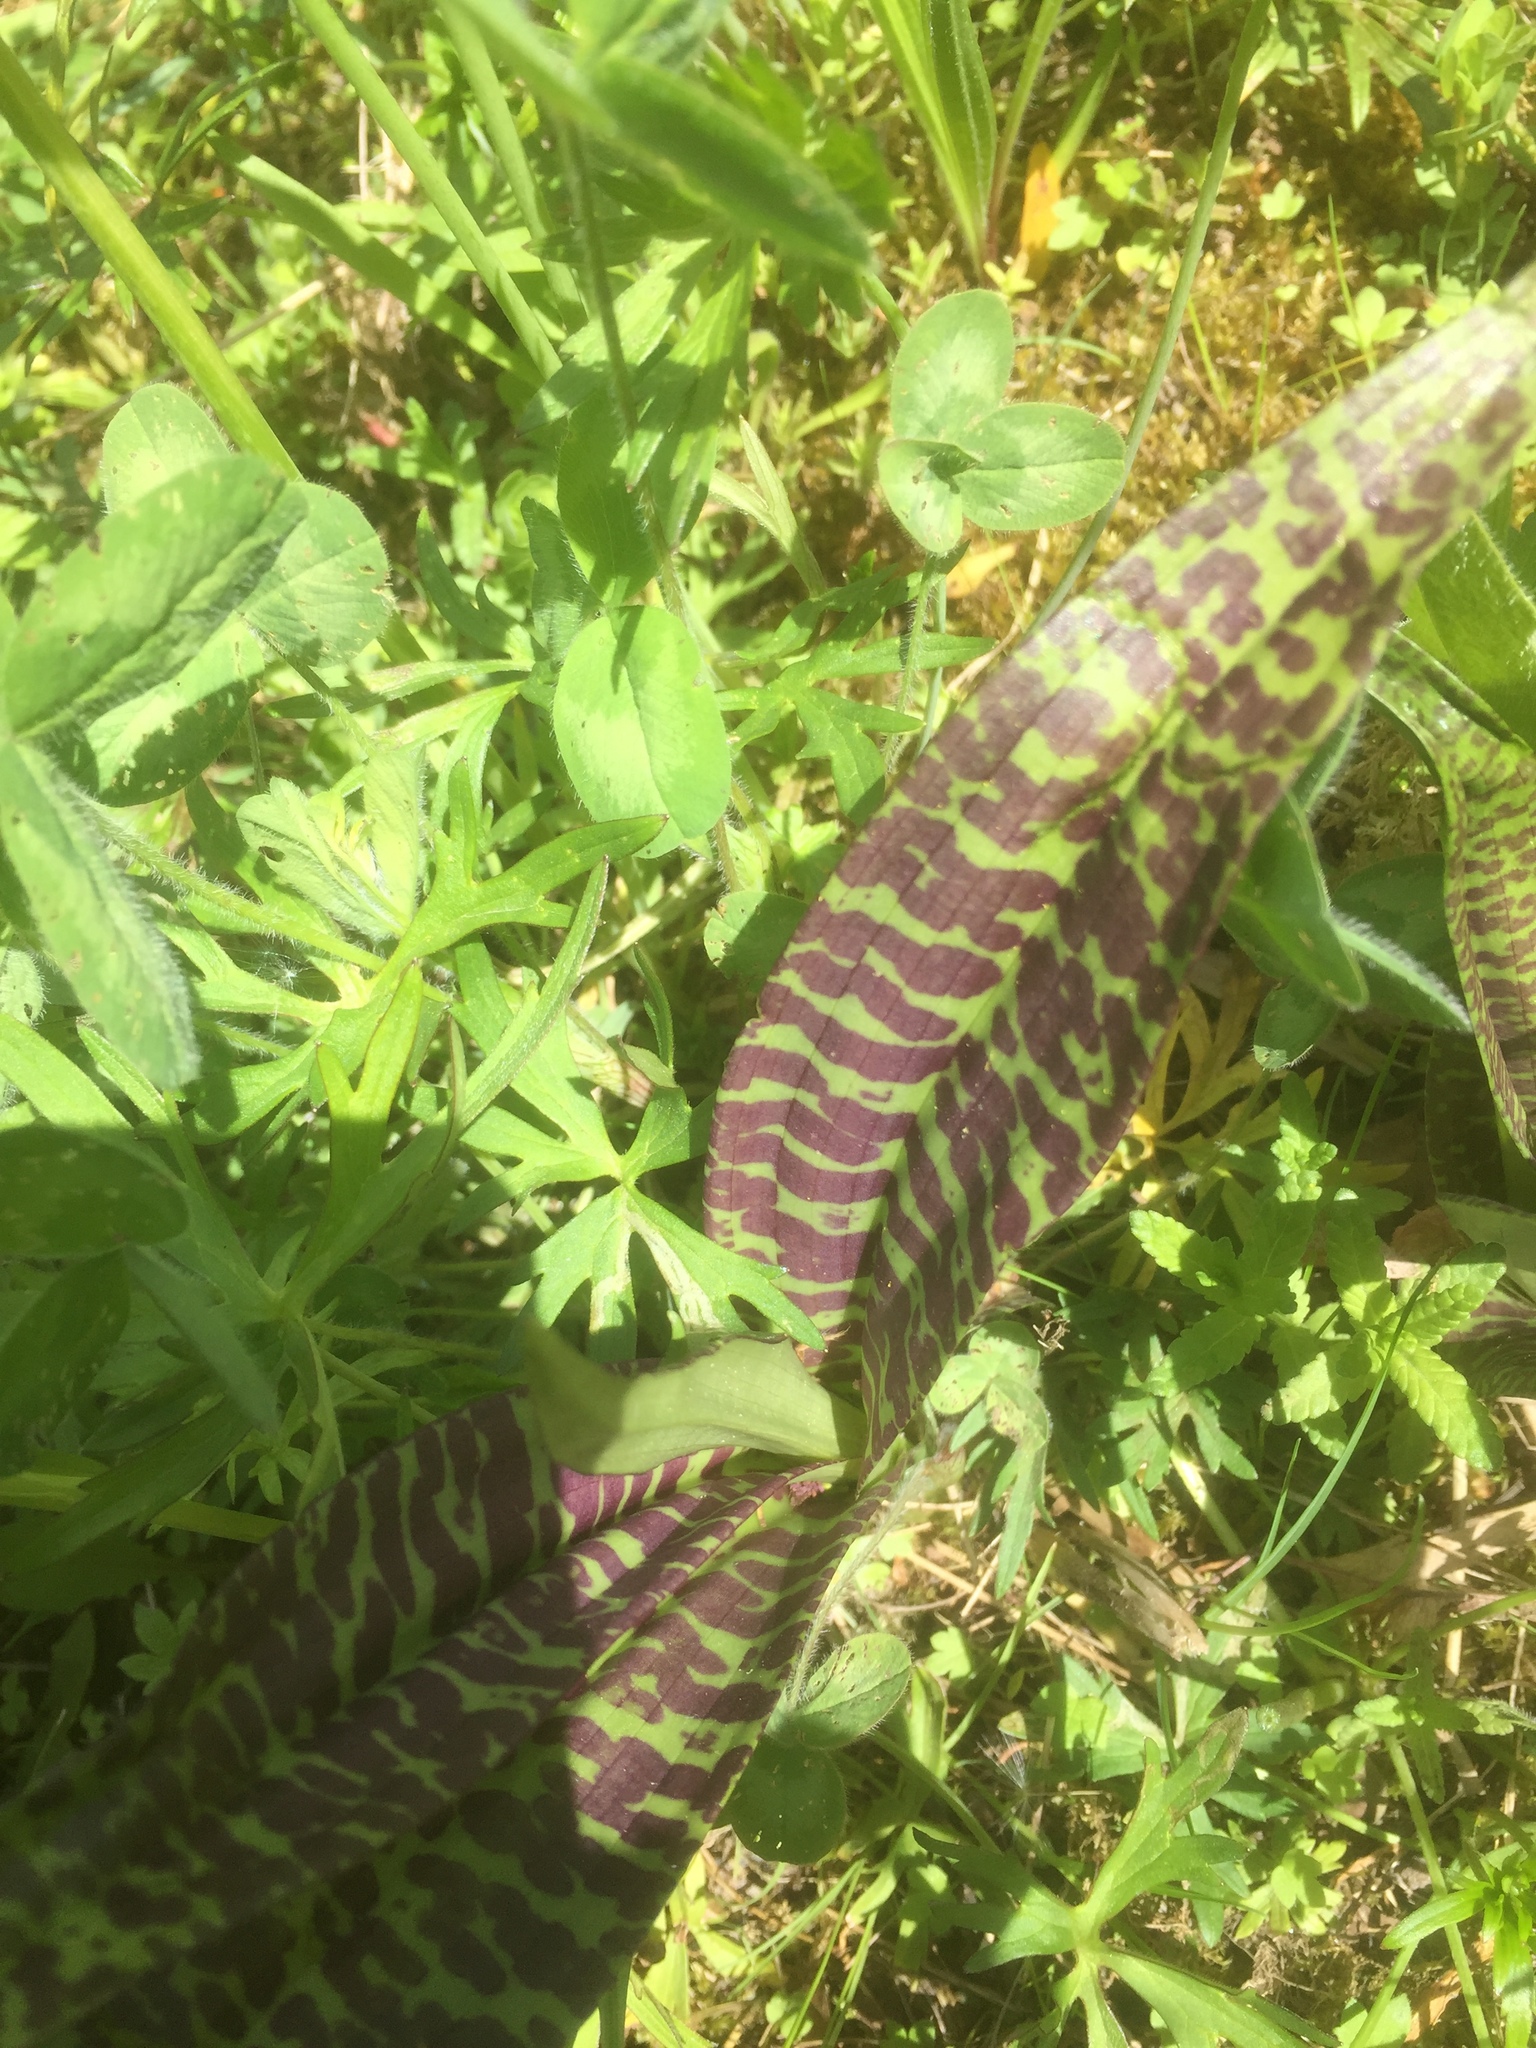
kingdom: Plantae
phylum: Tracheophyta
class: Liliopsida
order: Asparagales
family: Orchidaceae
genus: Dactylorhiza
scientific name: Dactylorhiza majalis
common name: Marsh orchid
